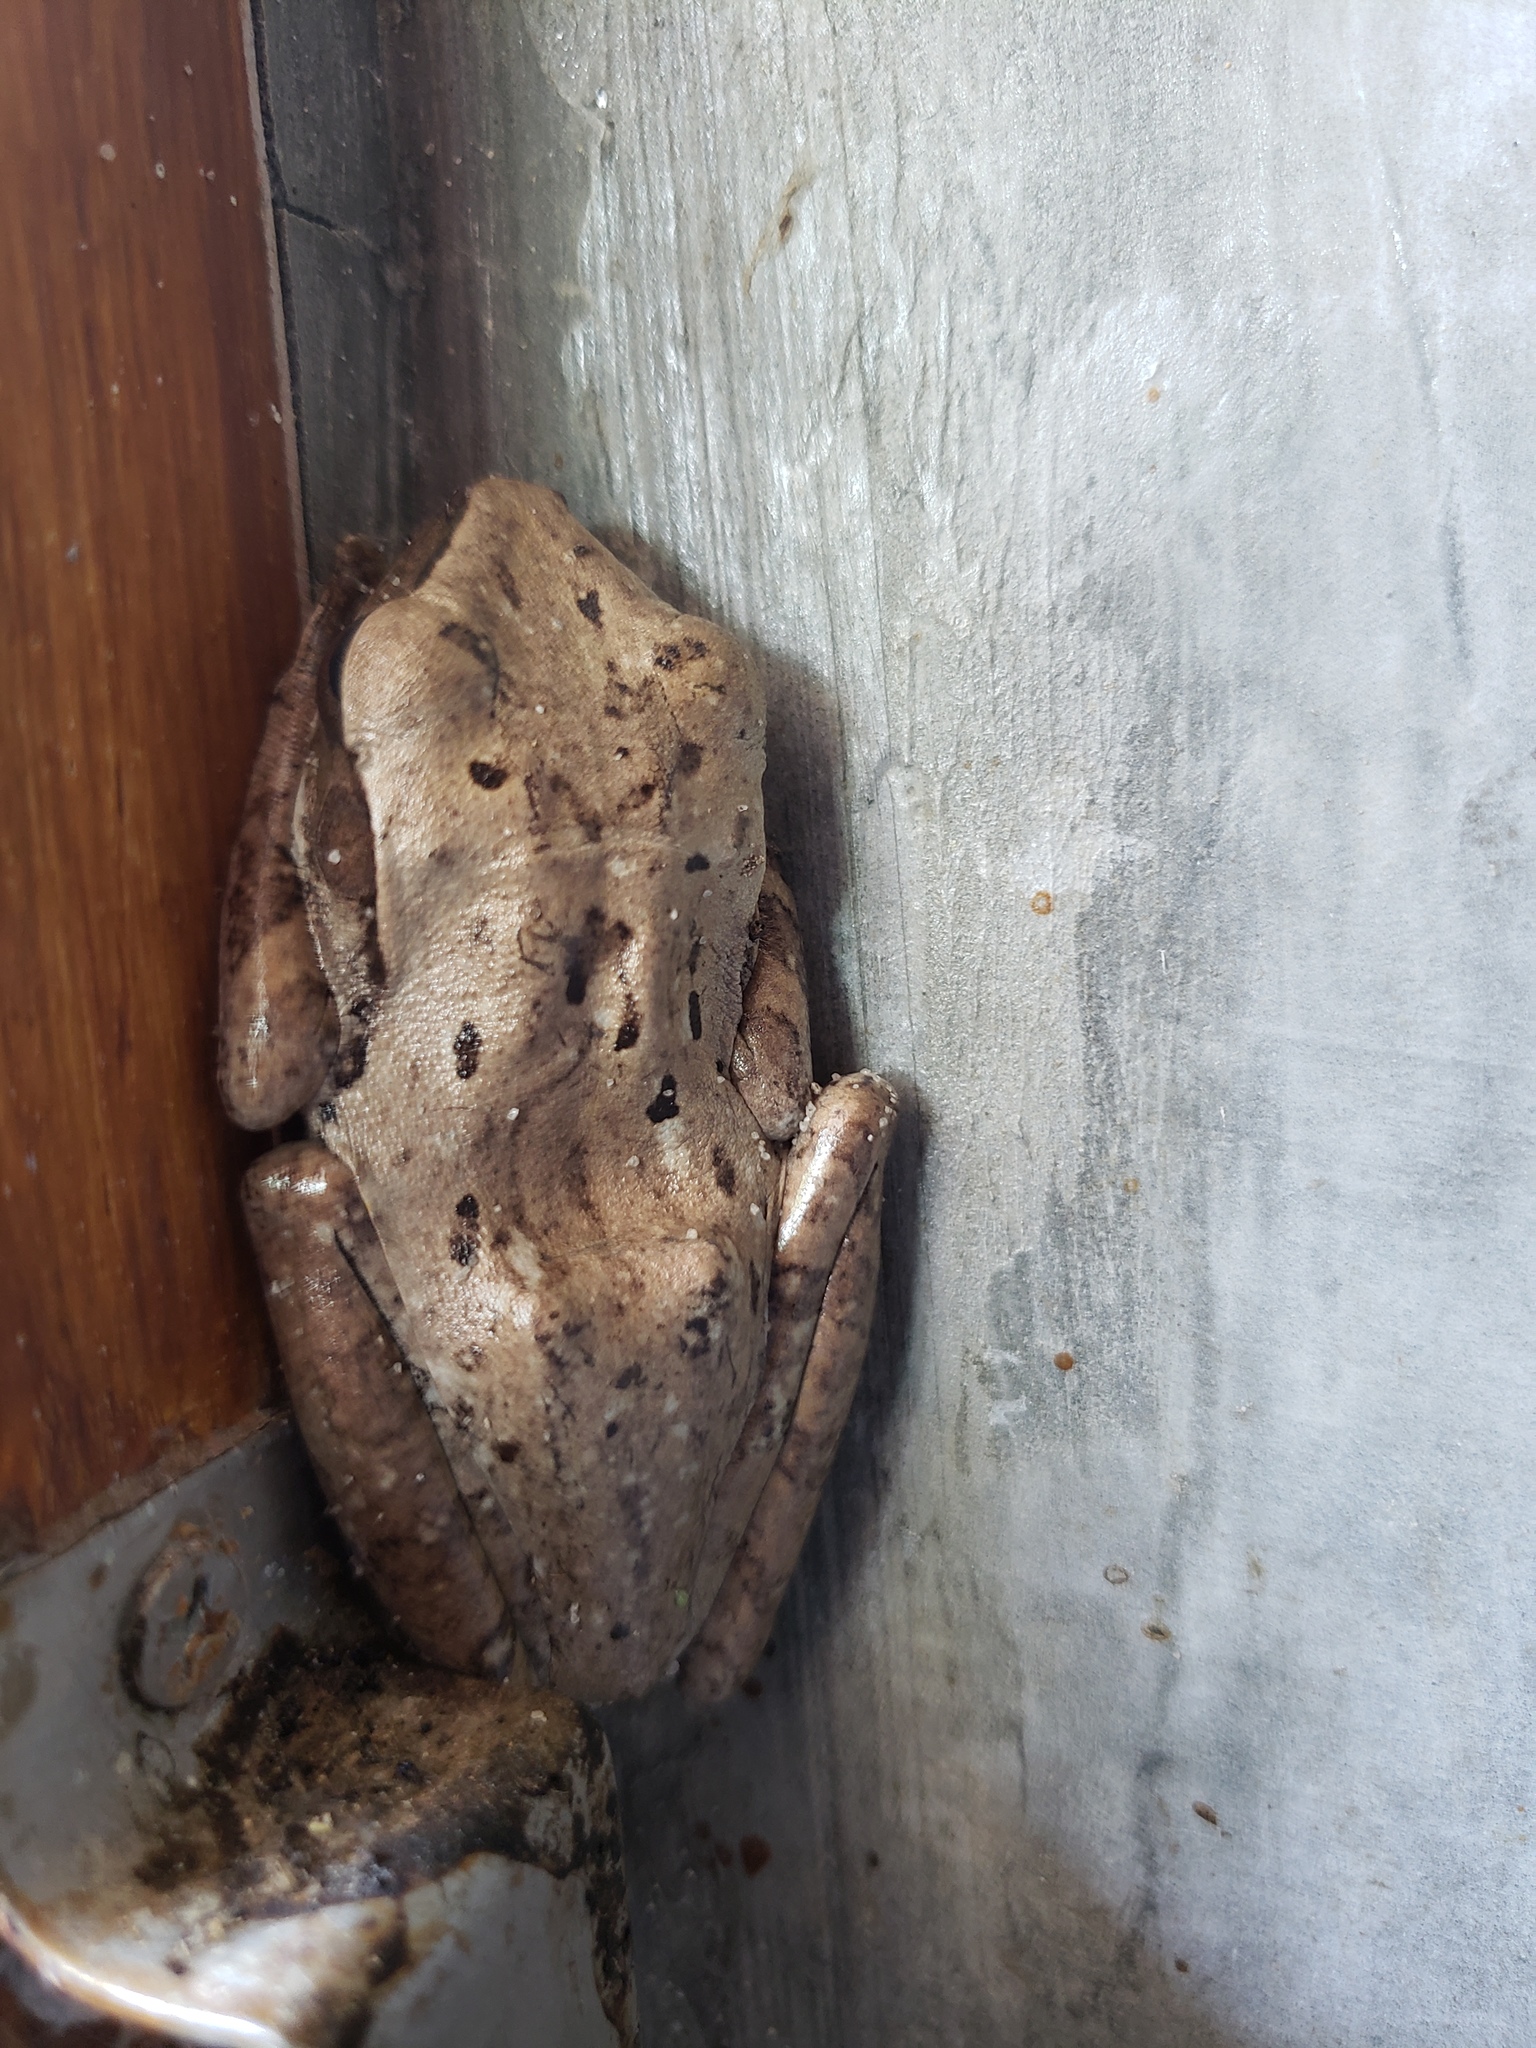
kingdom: Animalia
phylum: Chordata
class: Amphibia
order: Anura
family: Rhacophoridae
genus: Polypedates
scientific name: Polypedates leucomystax
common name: Common tree frog/four-lined tree frog
